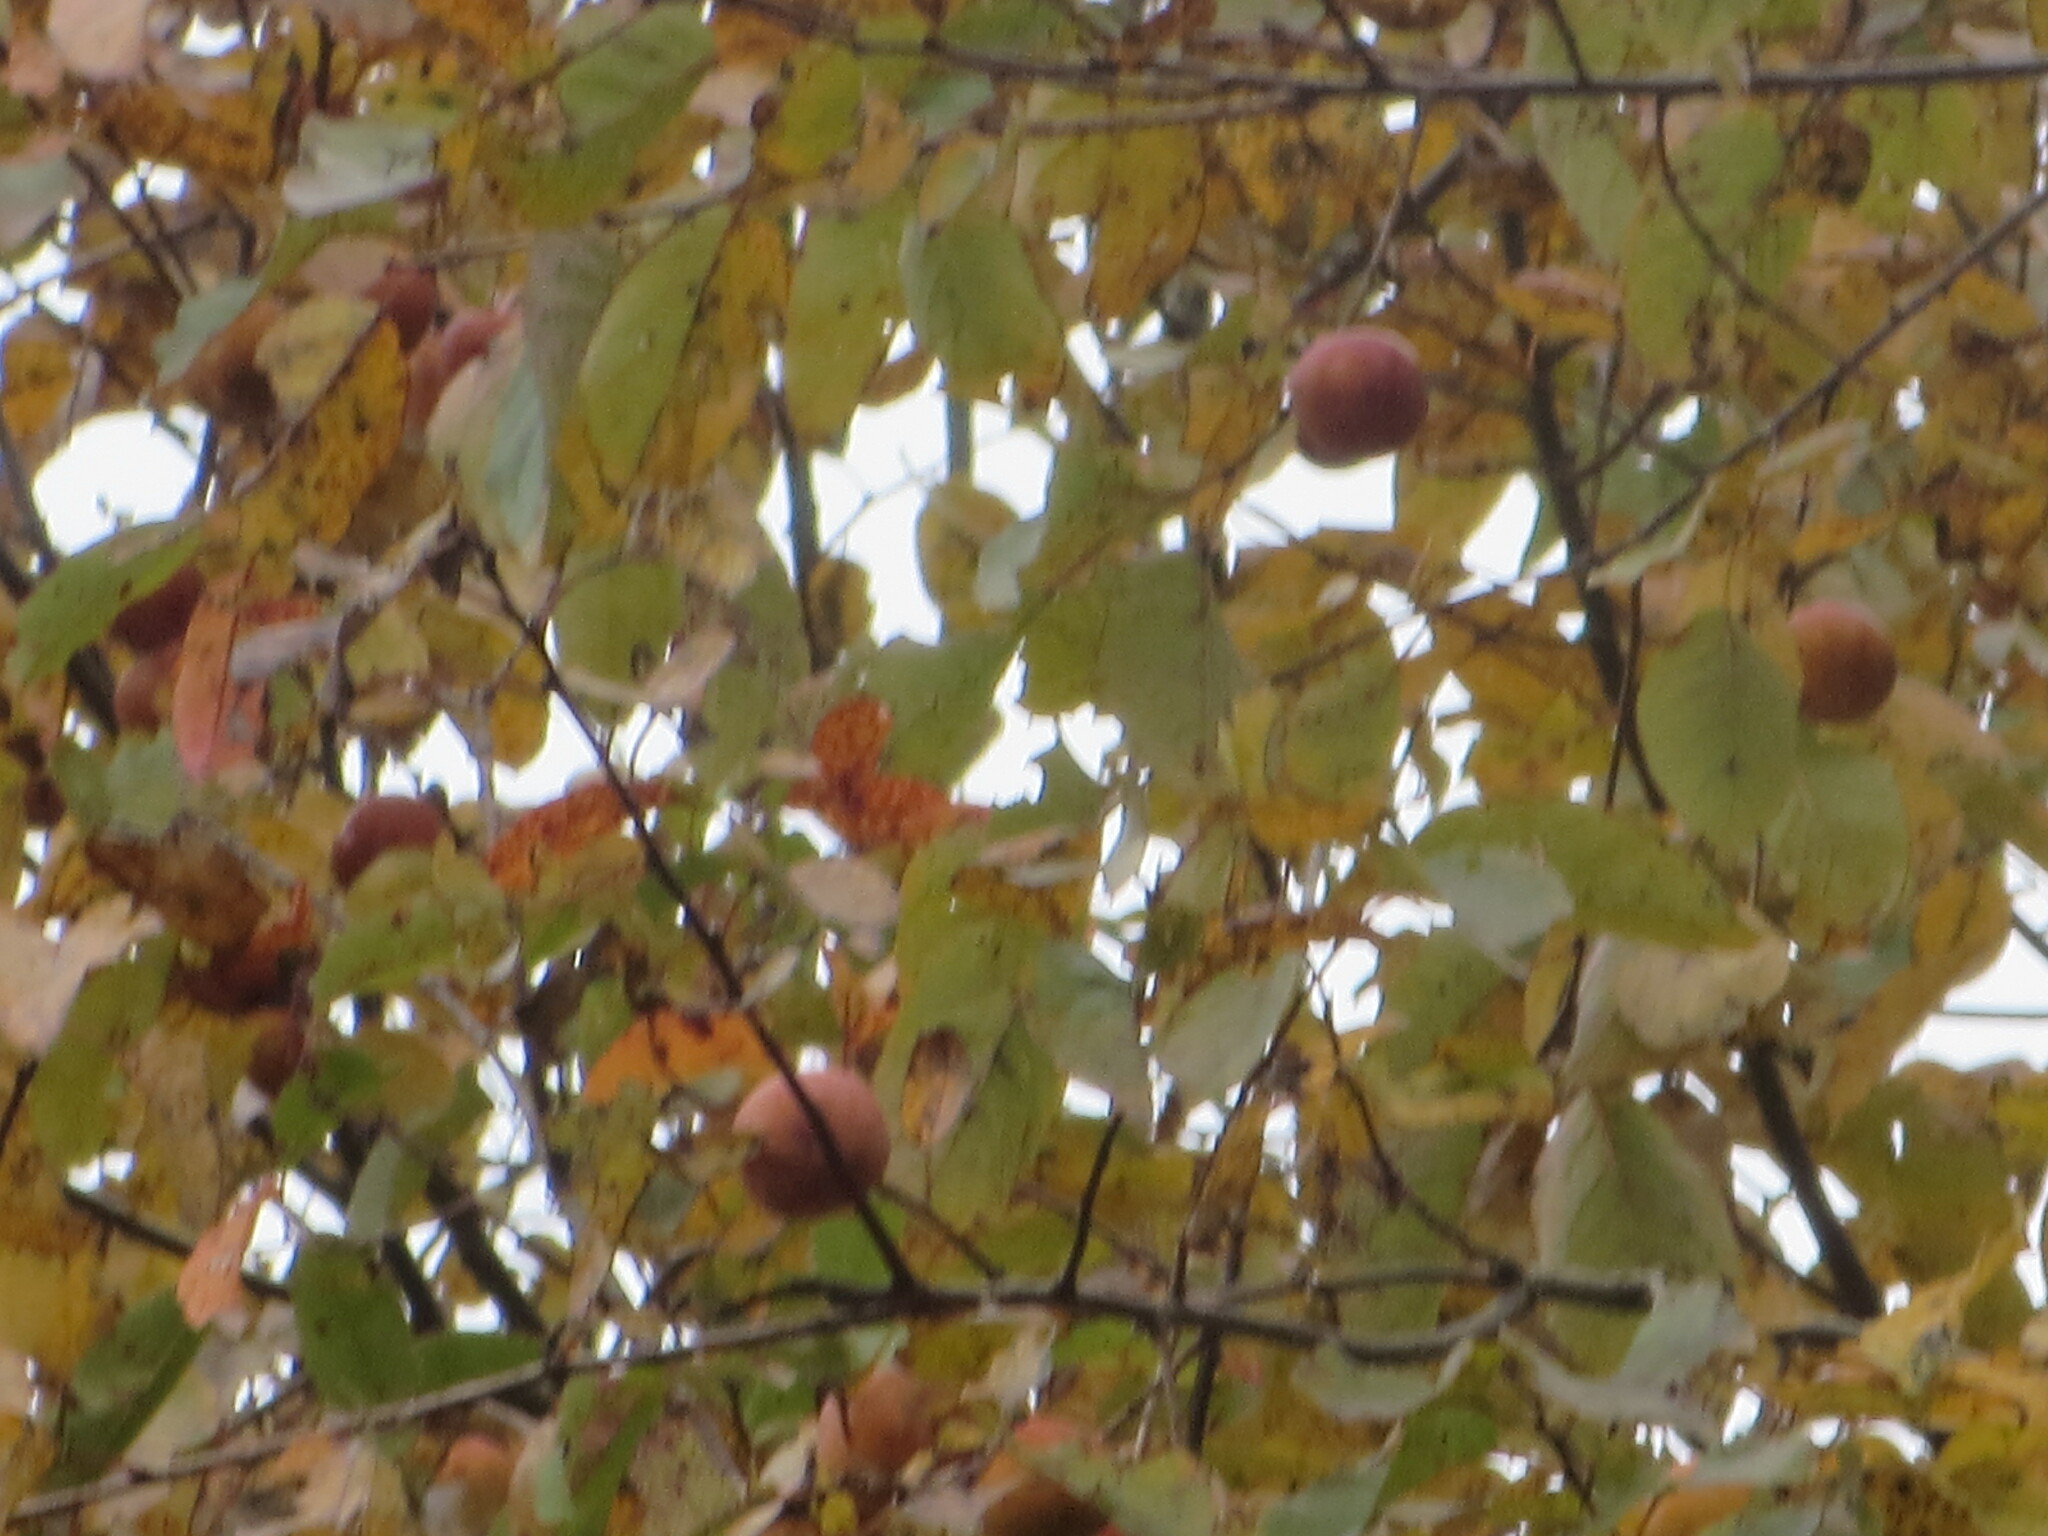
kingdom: Plantae
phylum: Tracheophyta
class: Magnoliopsida
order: Ericales
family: Ebenaceae
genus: Diospyros
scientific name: Diospyros virginiana
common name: Persimmon
